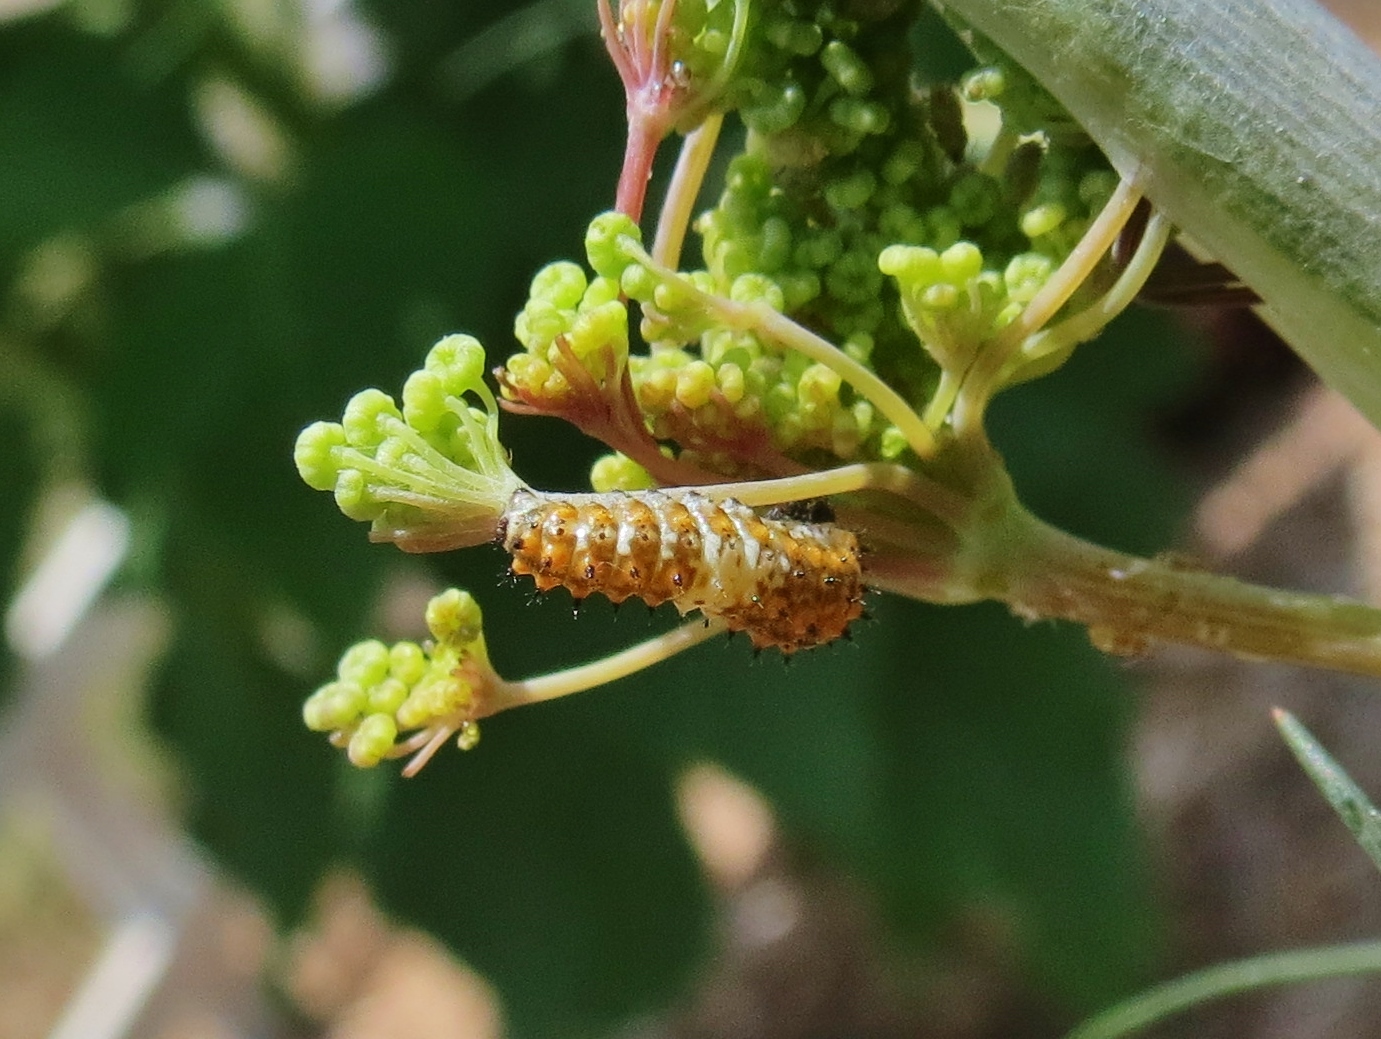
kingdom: Animalia
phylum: Arthropoda
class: Insecta
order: Lepidoptera
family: Papilionidae
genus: Papilio
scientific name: Papilio polyxenes
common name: Black swallowtail
